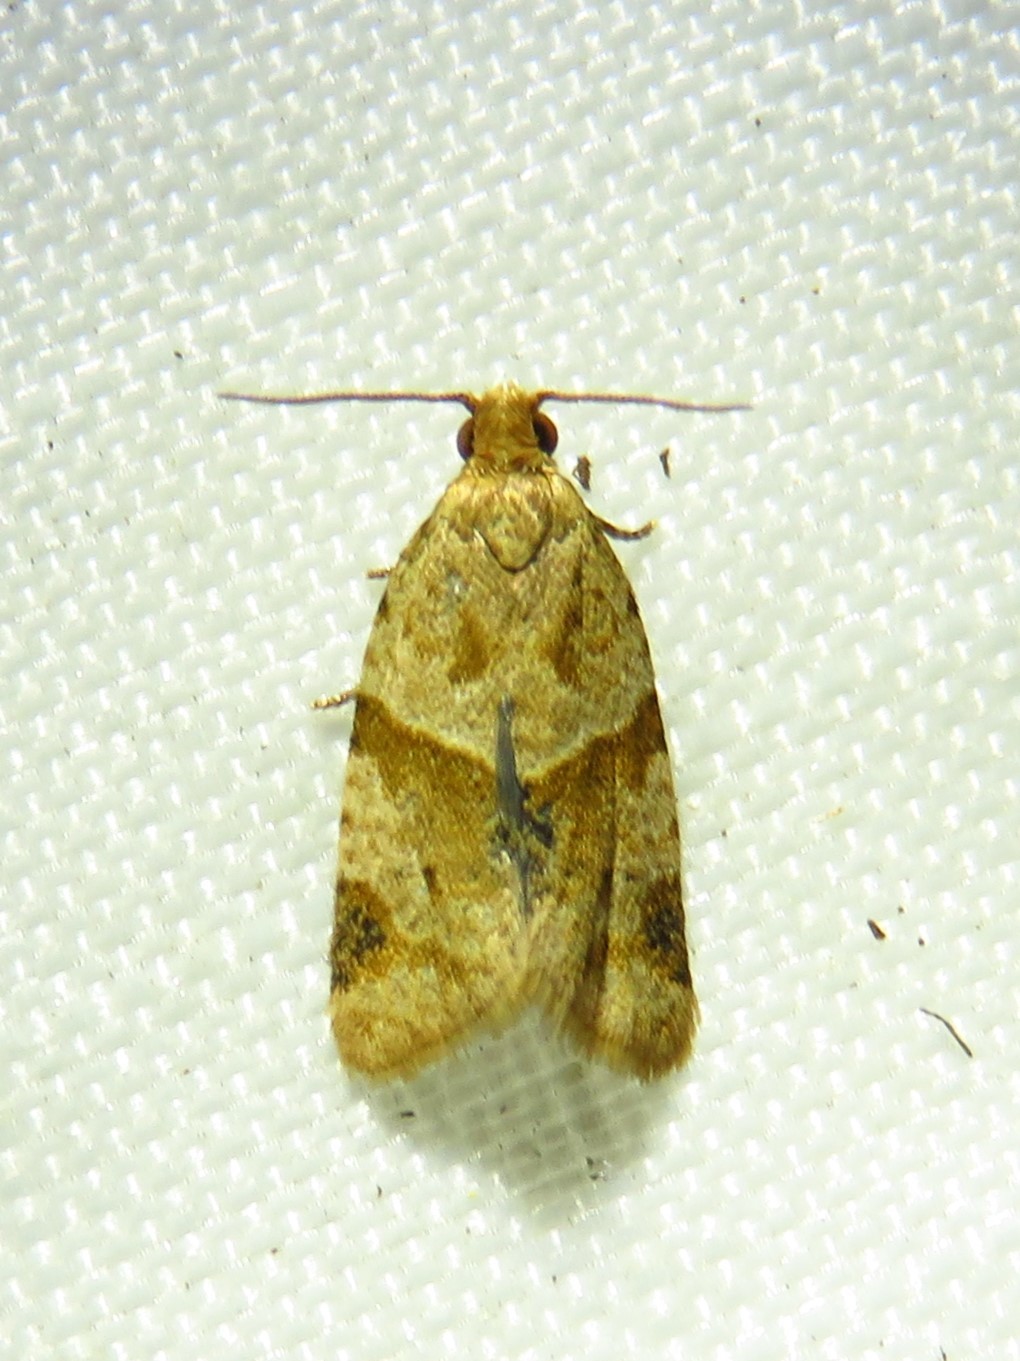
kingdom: Animalia
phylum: Arthropoda
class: Insecta
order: Lepidoptera
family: Tortricidae
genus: Clepsis
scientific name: Clepsis peritana
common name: Garden tortrix
